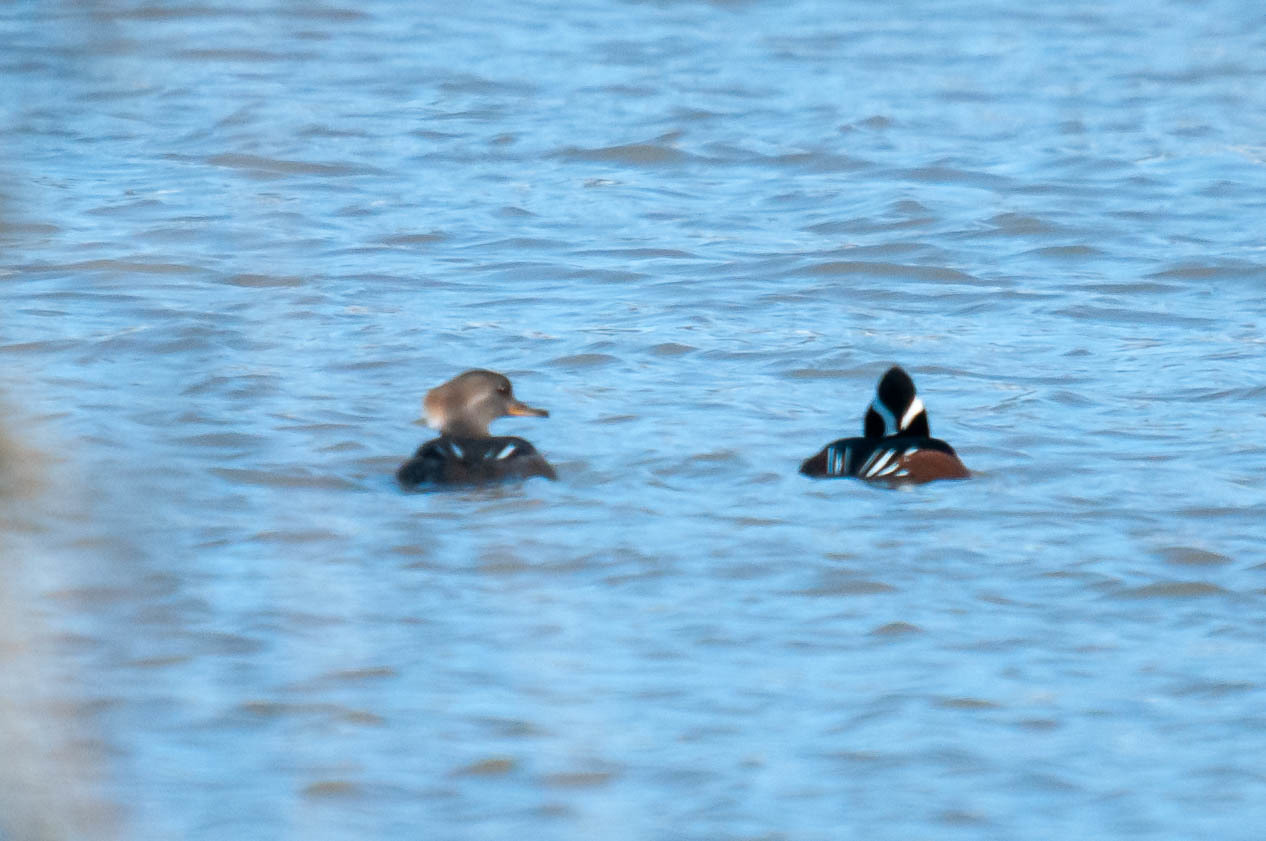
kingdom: Animalia
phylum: Chordata
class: Aves
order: Anseriformes
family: Anatidae
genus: Lophodytes
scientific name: Lophodytes cucullatus
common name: Hooded merganser
